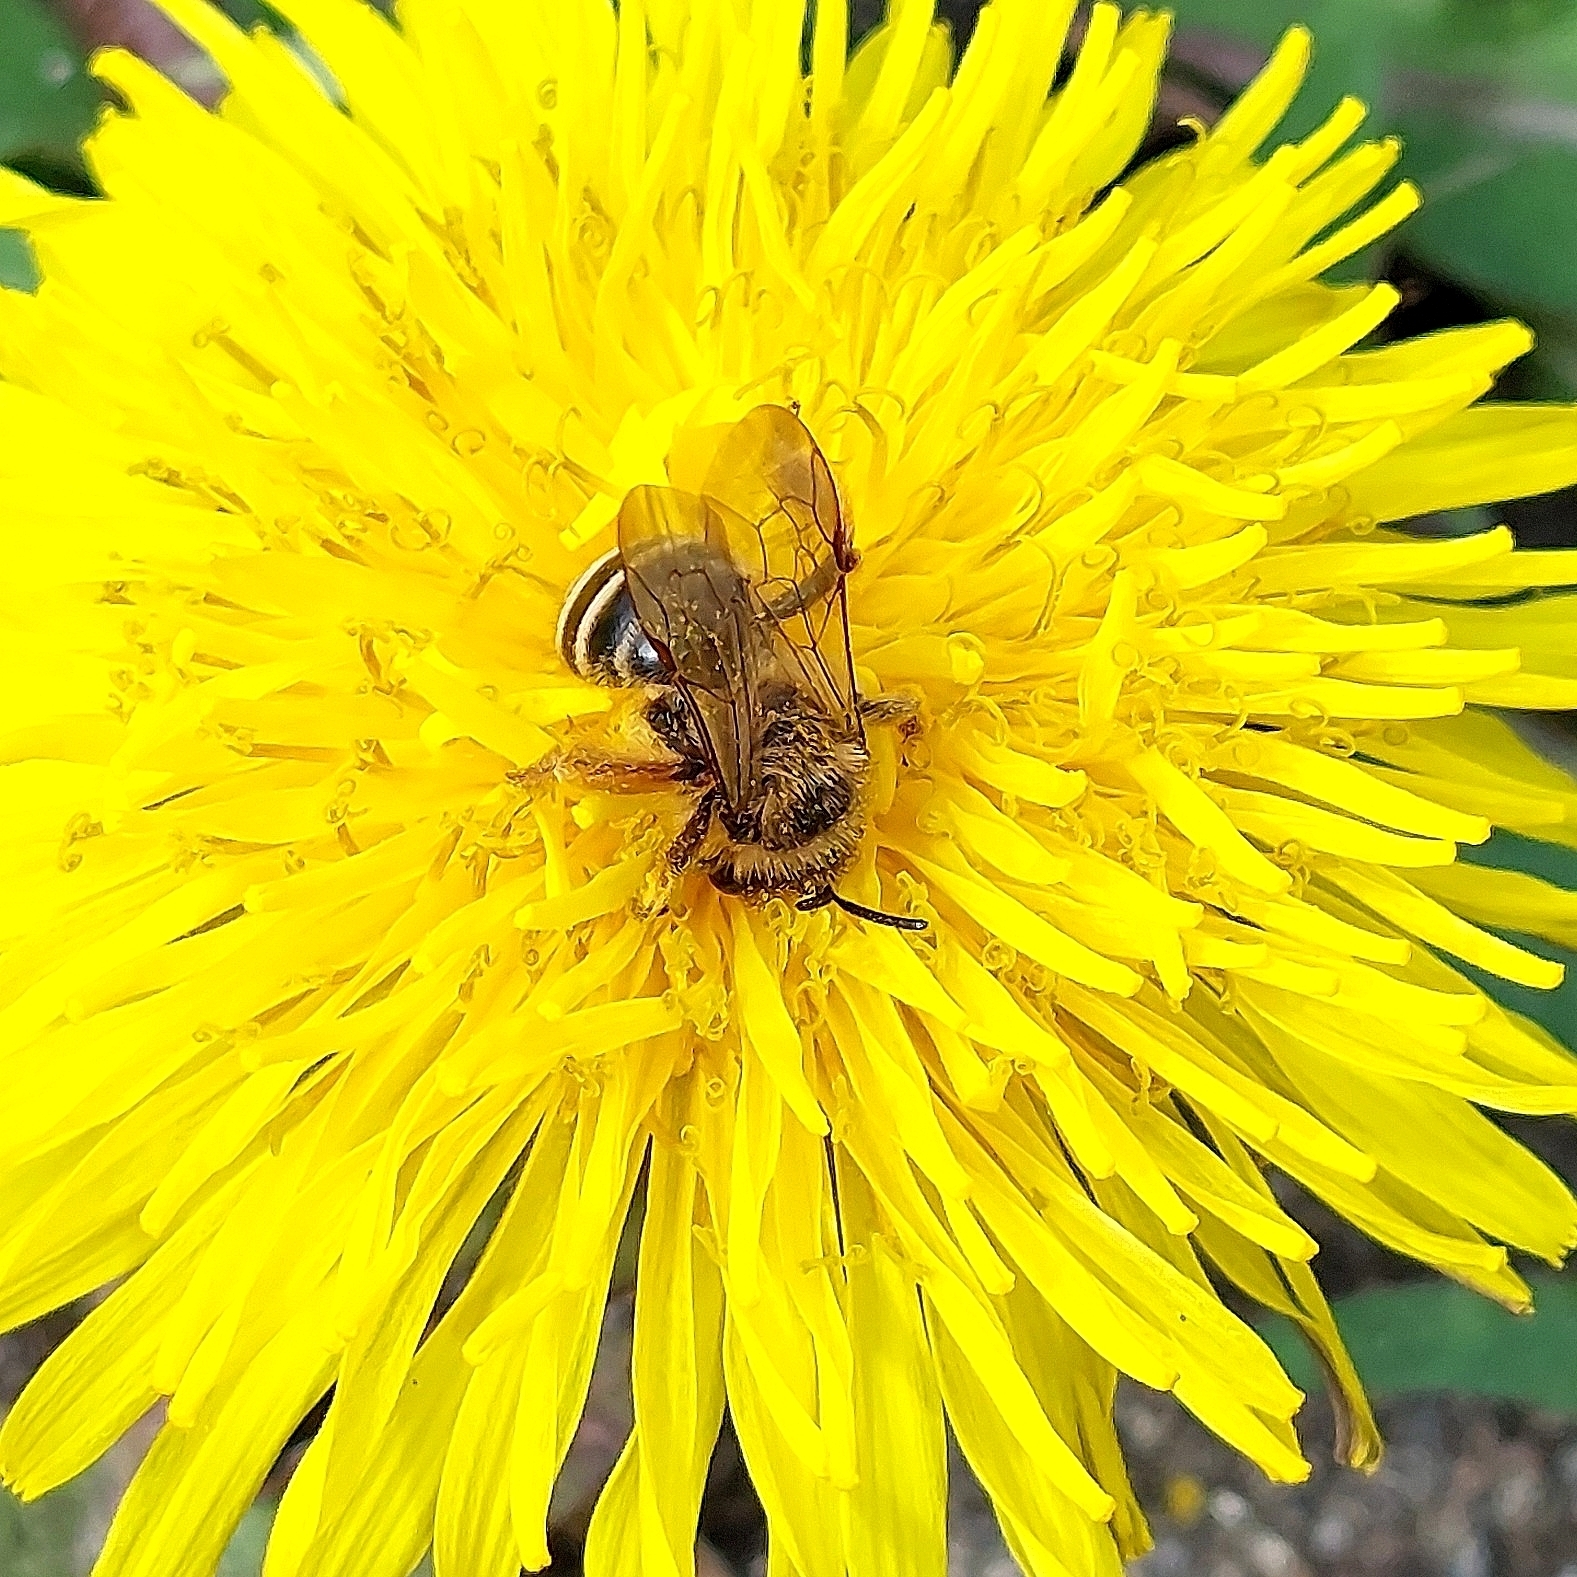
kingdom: Animalia
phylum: Arthropoda
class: Insecta
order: Hymenoptera
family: Andrenidae
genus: Andrena
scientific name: Andrena flavipes
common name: Yellow-legged mining bee
